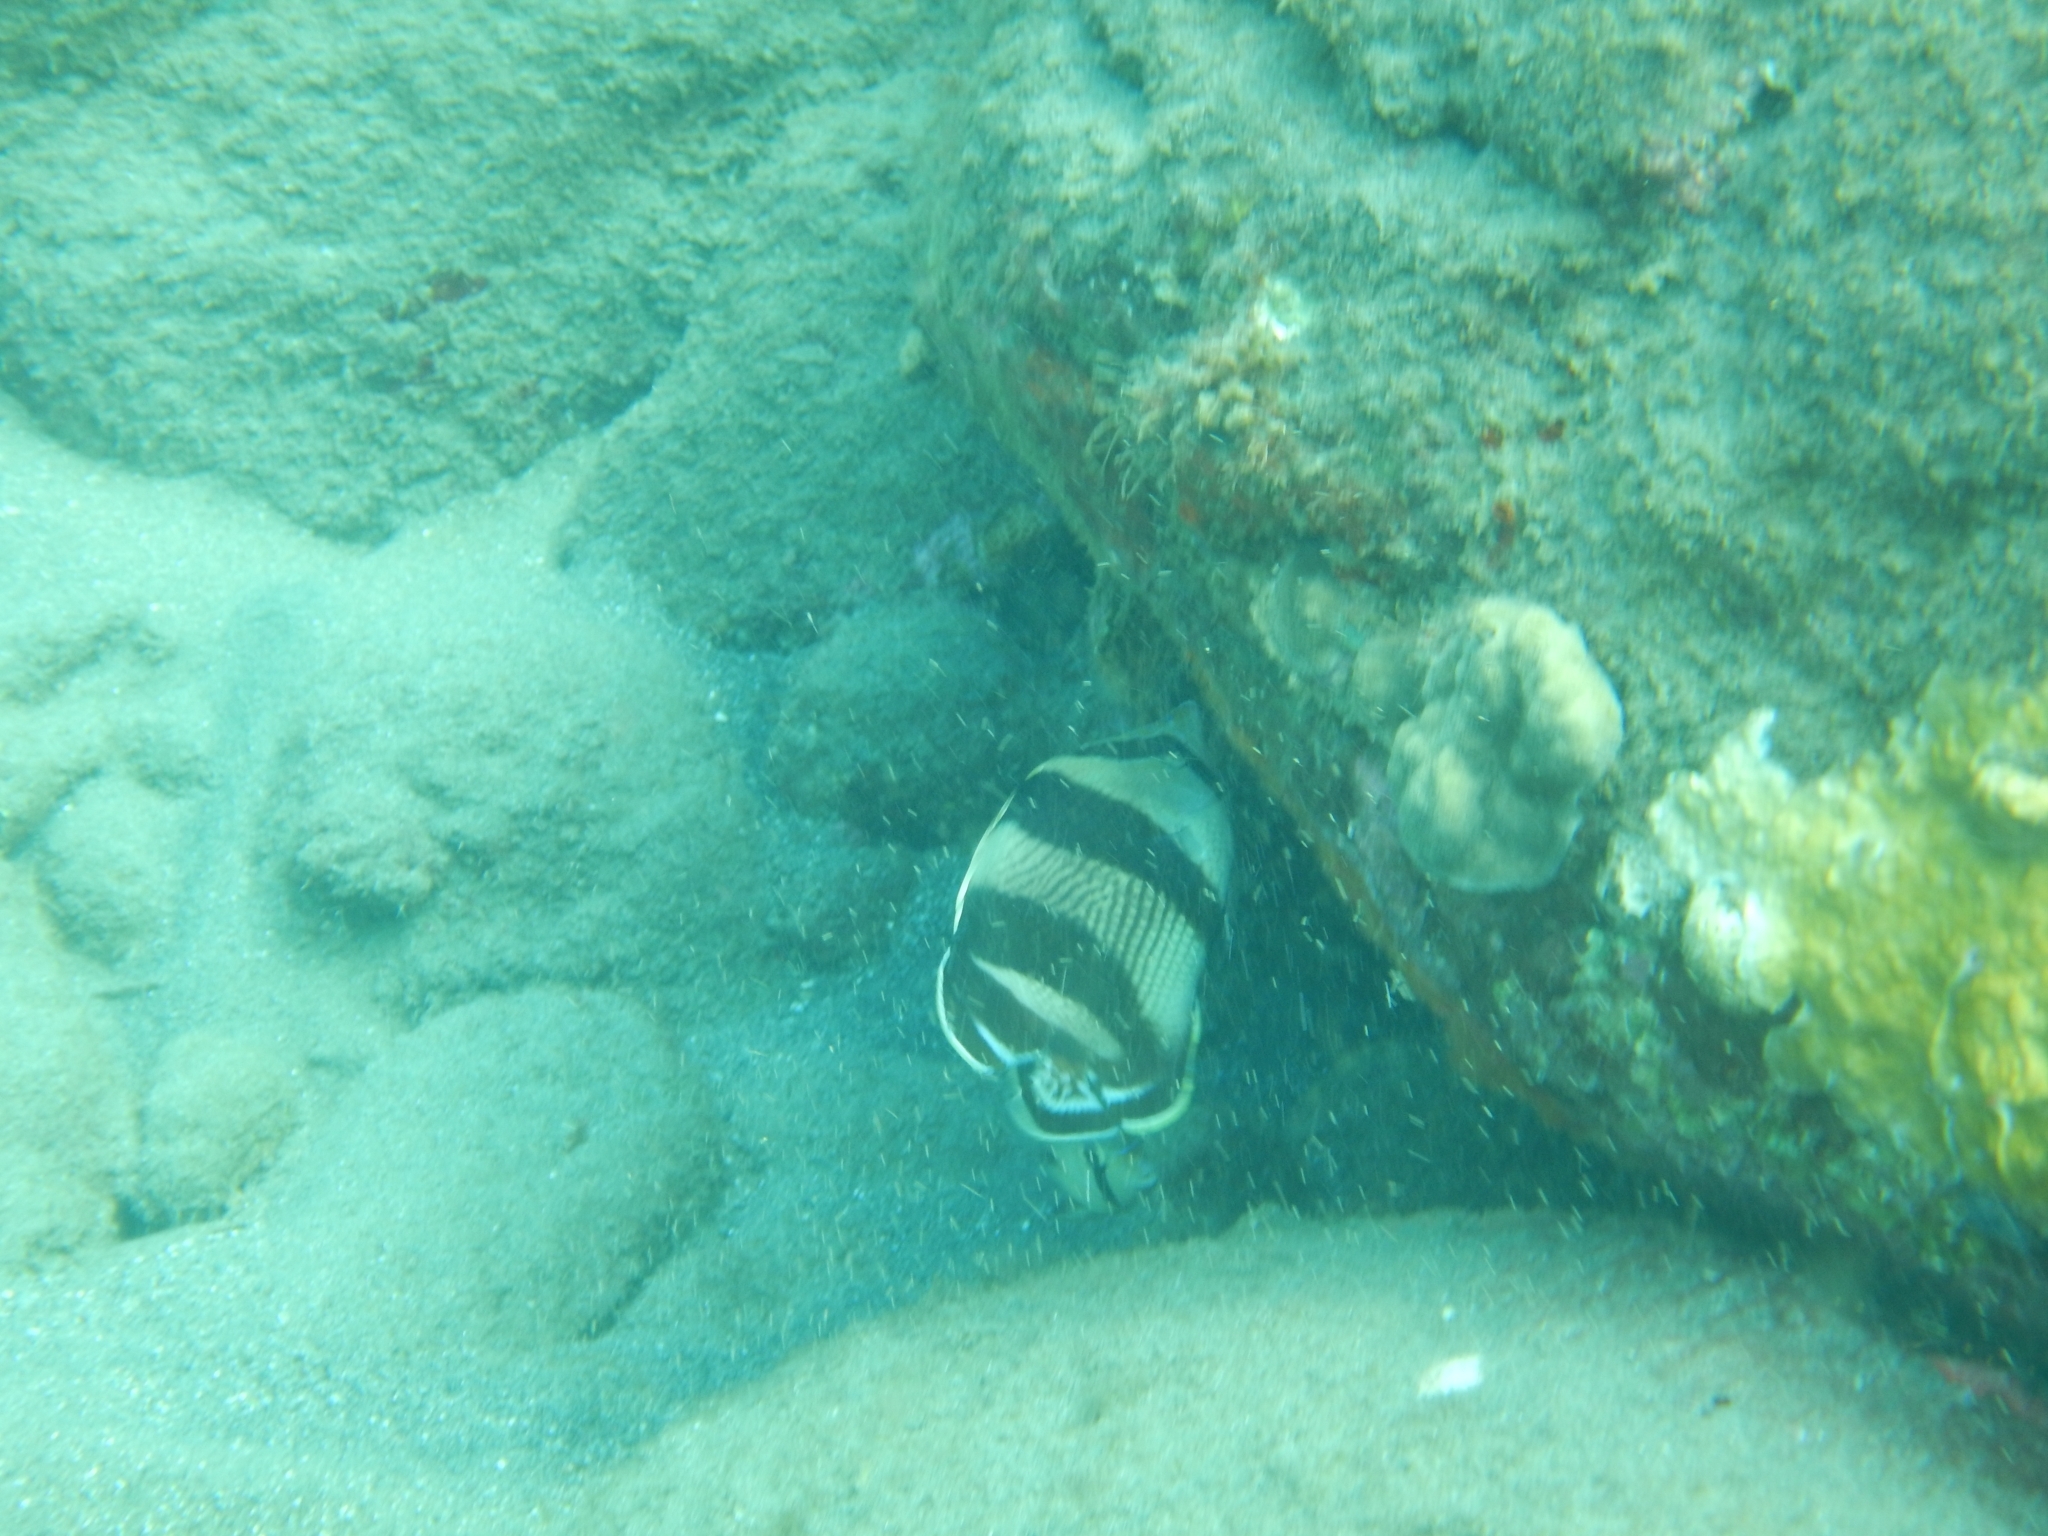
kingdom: Animalia
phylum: Chordata
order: Perciformes
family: Chaetodontidae
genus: Chaetodon
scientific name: Chaetodon striatus
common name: Banded butterflyfish
